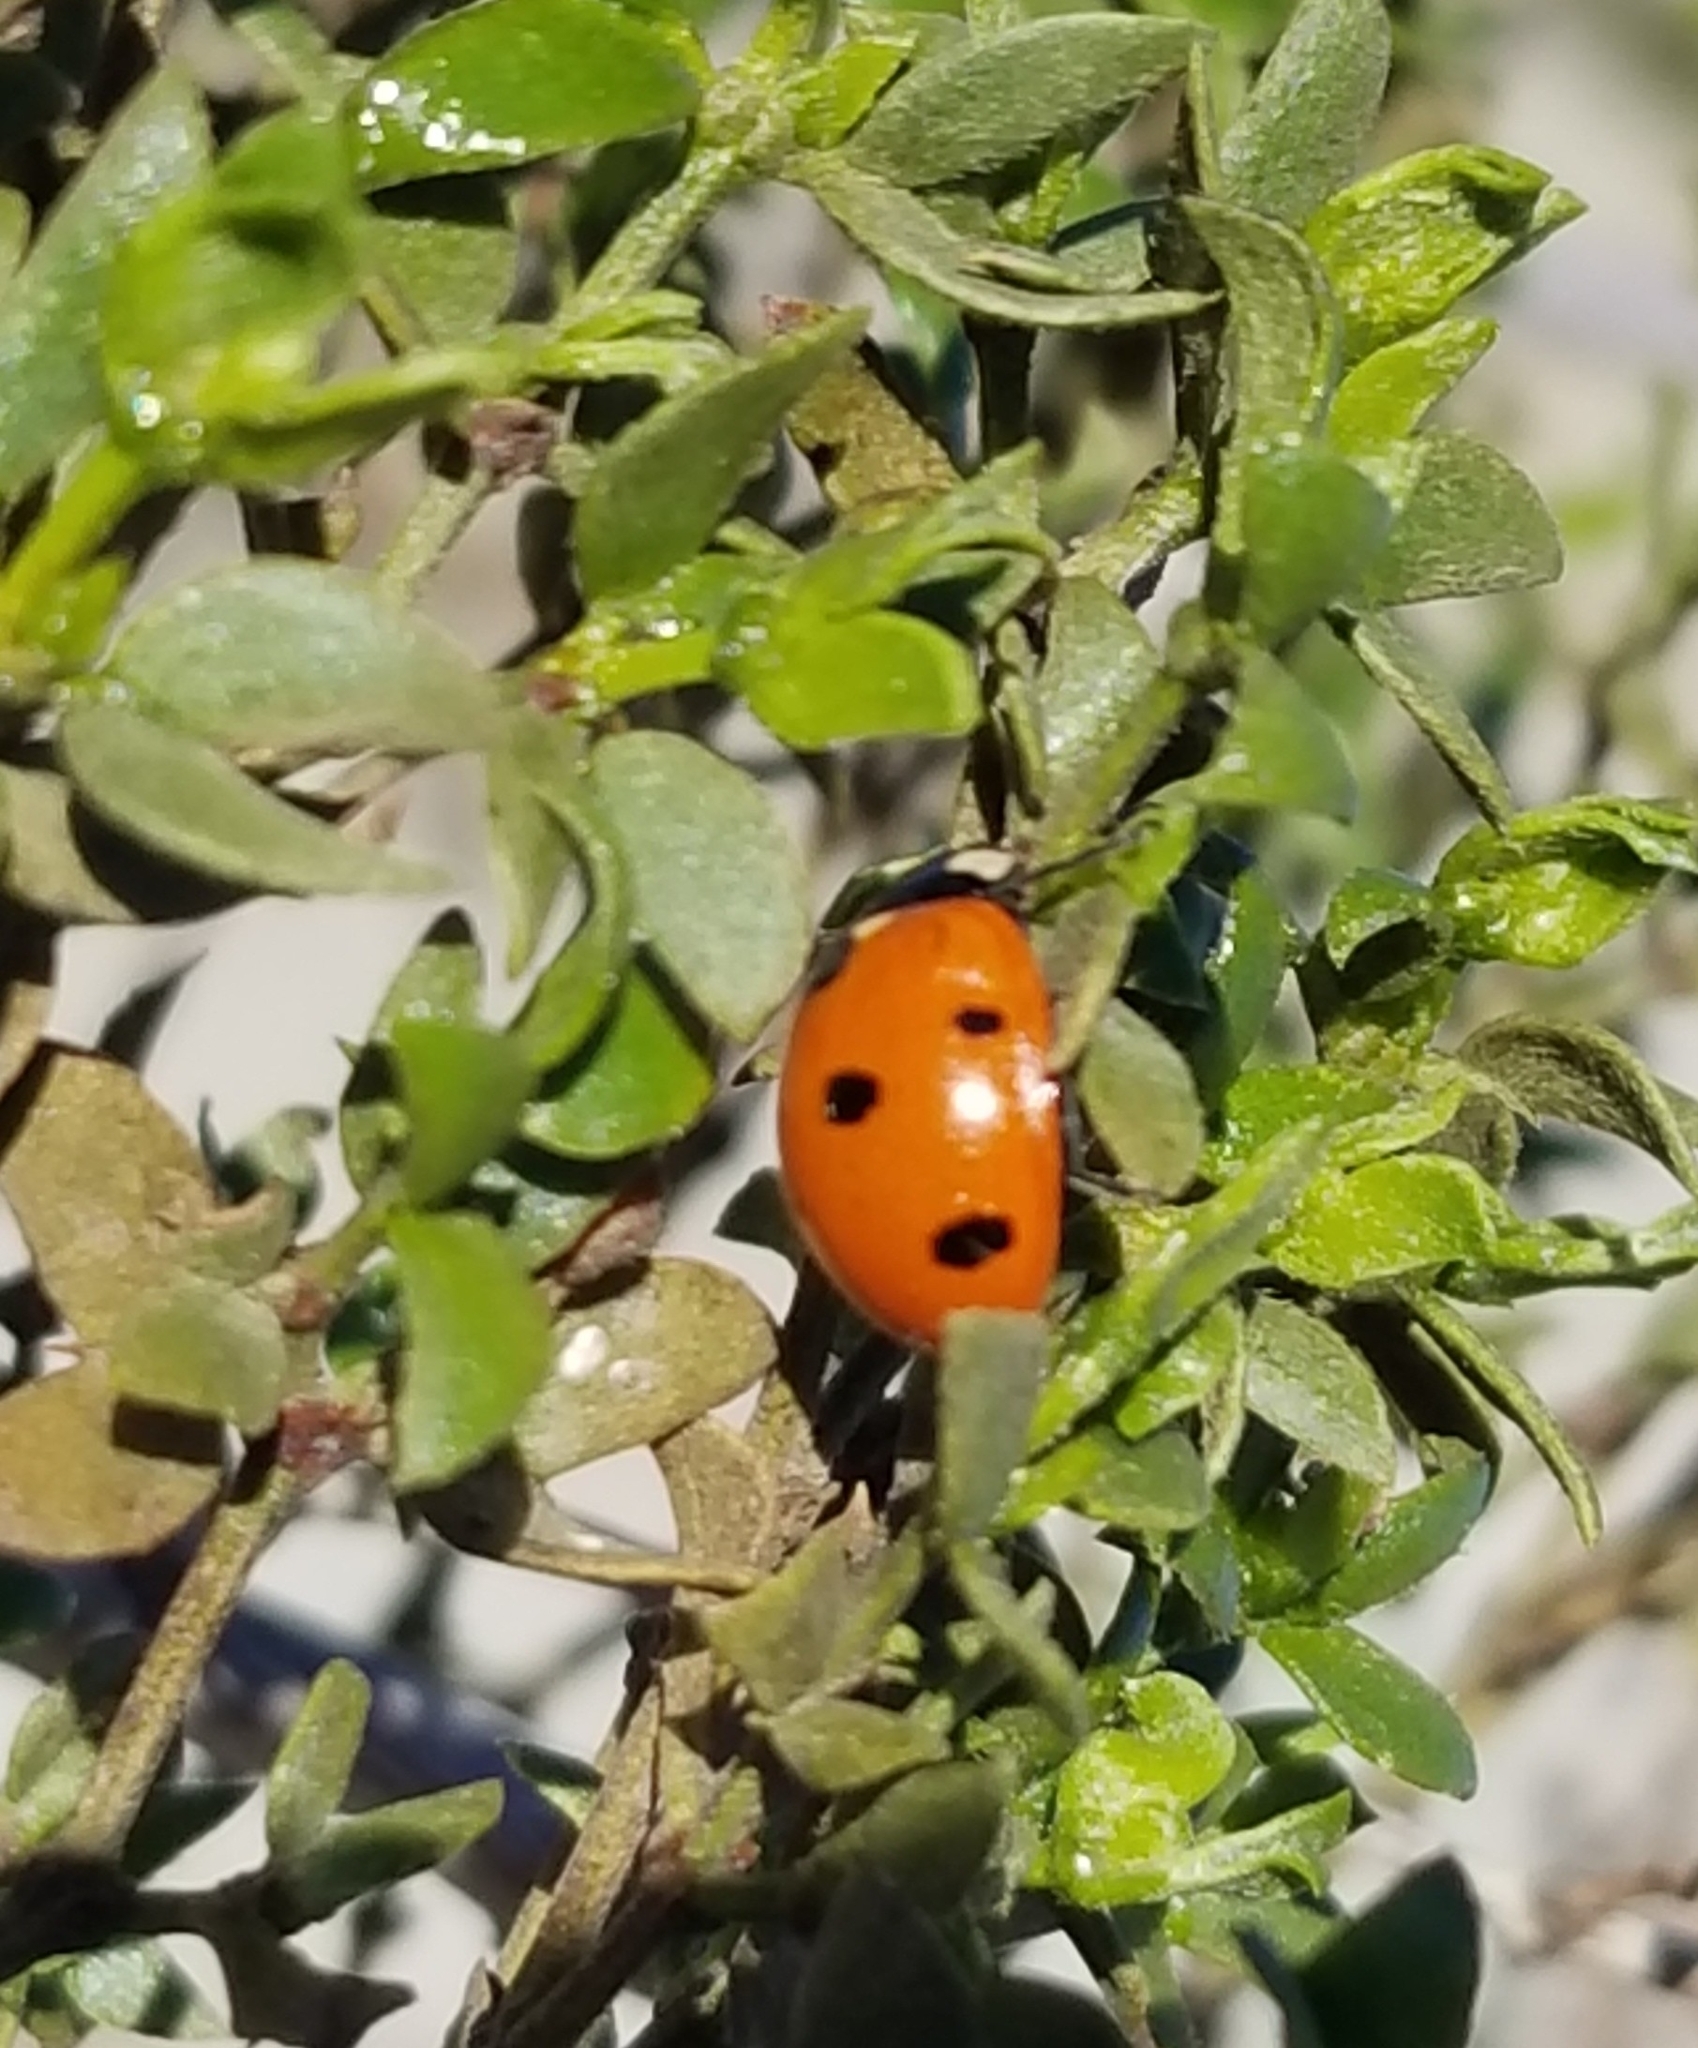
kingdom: Animalia
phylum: Arthropoda
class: Insecta
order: Coleoptera
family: Coccinellidae
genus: Coccinella
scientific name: Coccinella septempunctata
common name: Sevenspotted lady beetle
